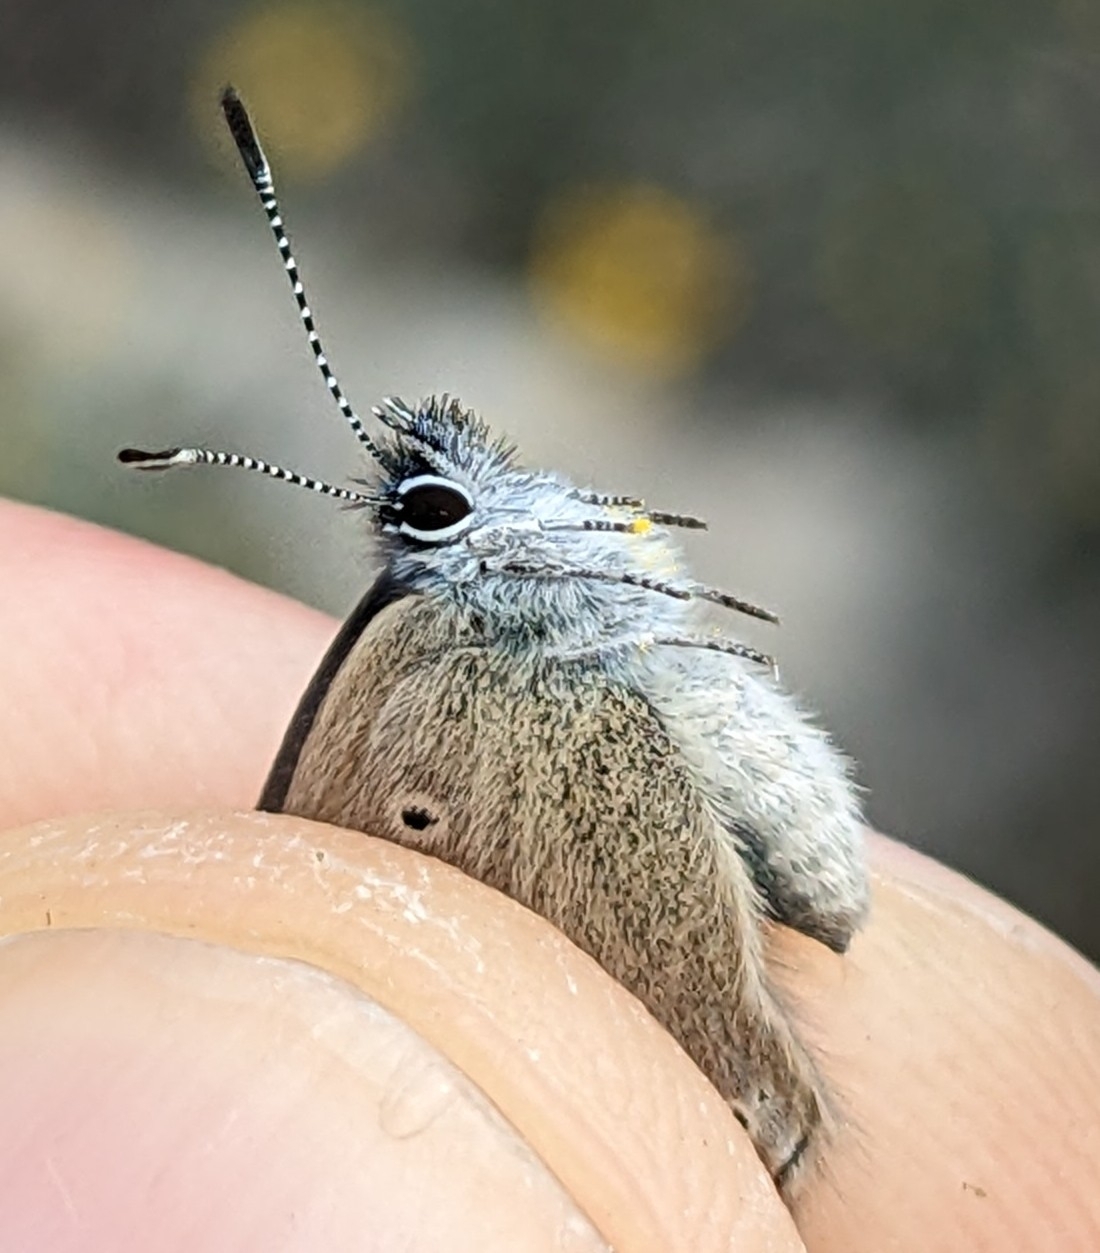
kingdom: Animalia
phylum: Arthropoda
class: Insecta
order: Lepidoptera
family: Lycaenidae
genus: Glaucopsyche
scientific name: Glaucopsyche paphos
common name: Paphos blue
